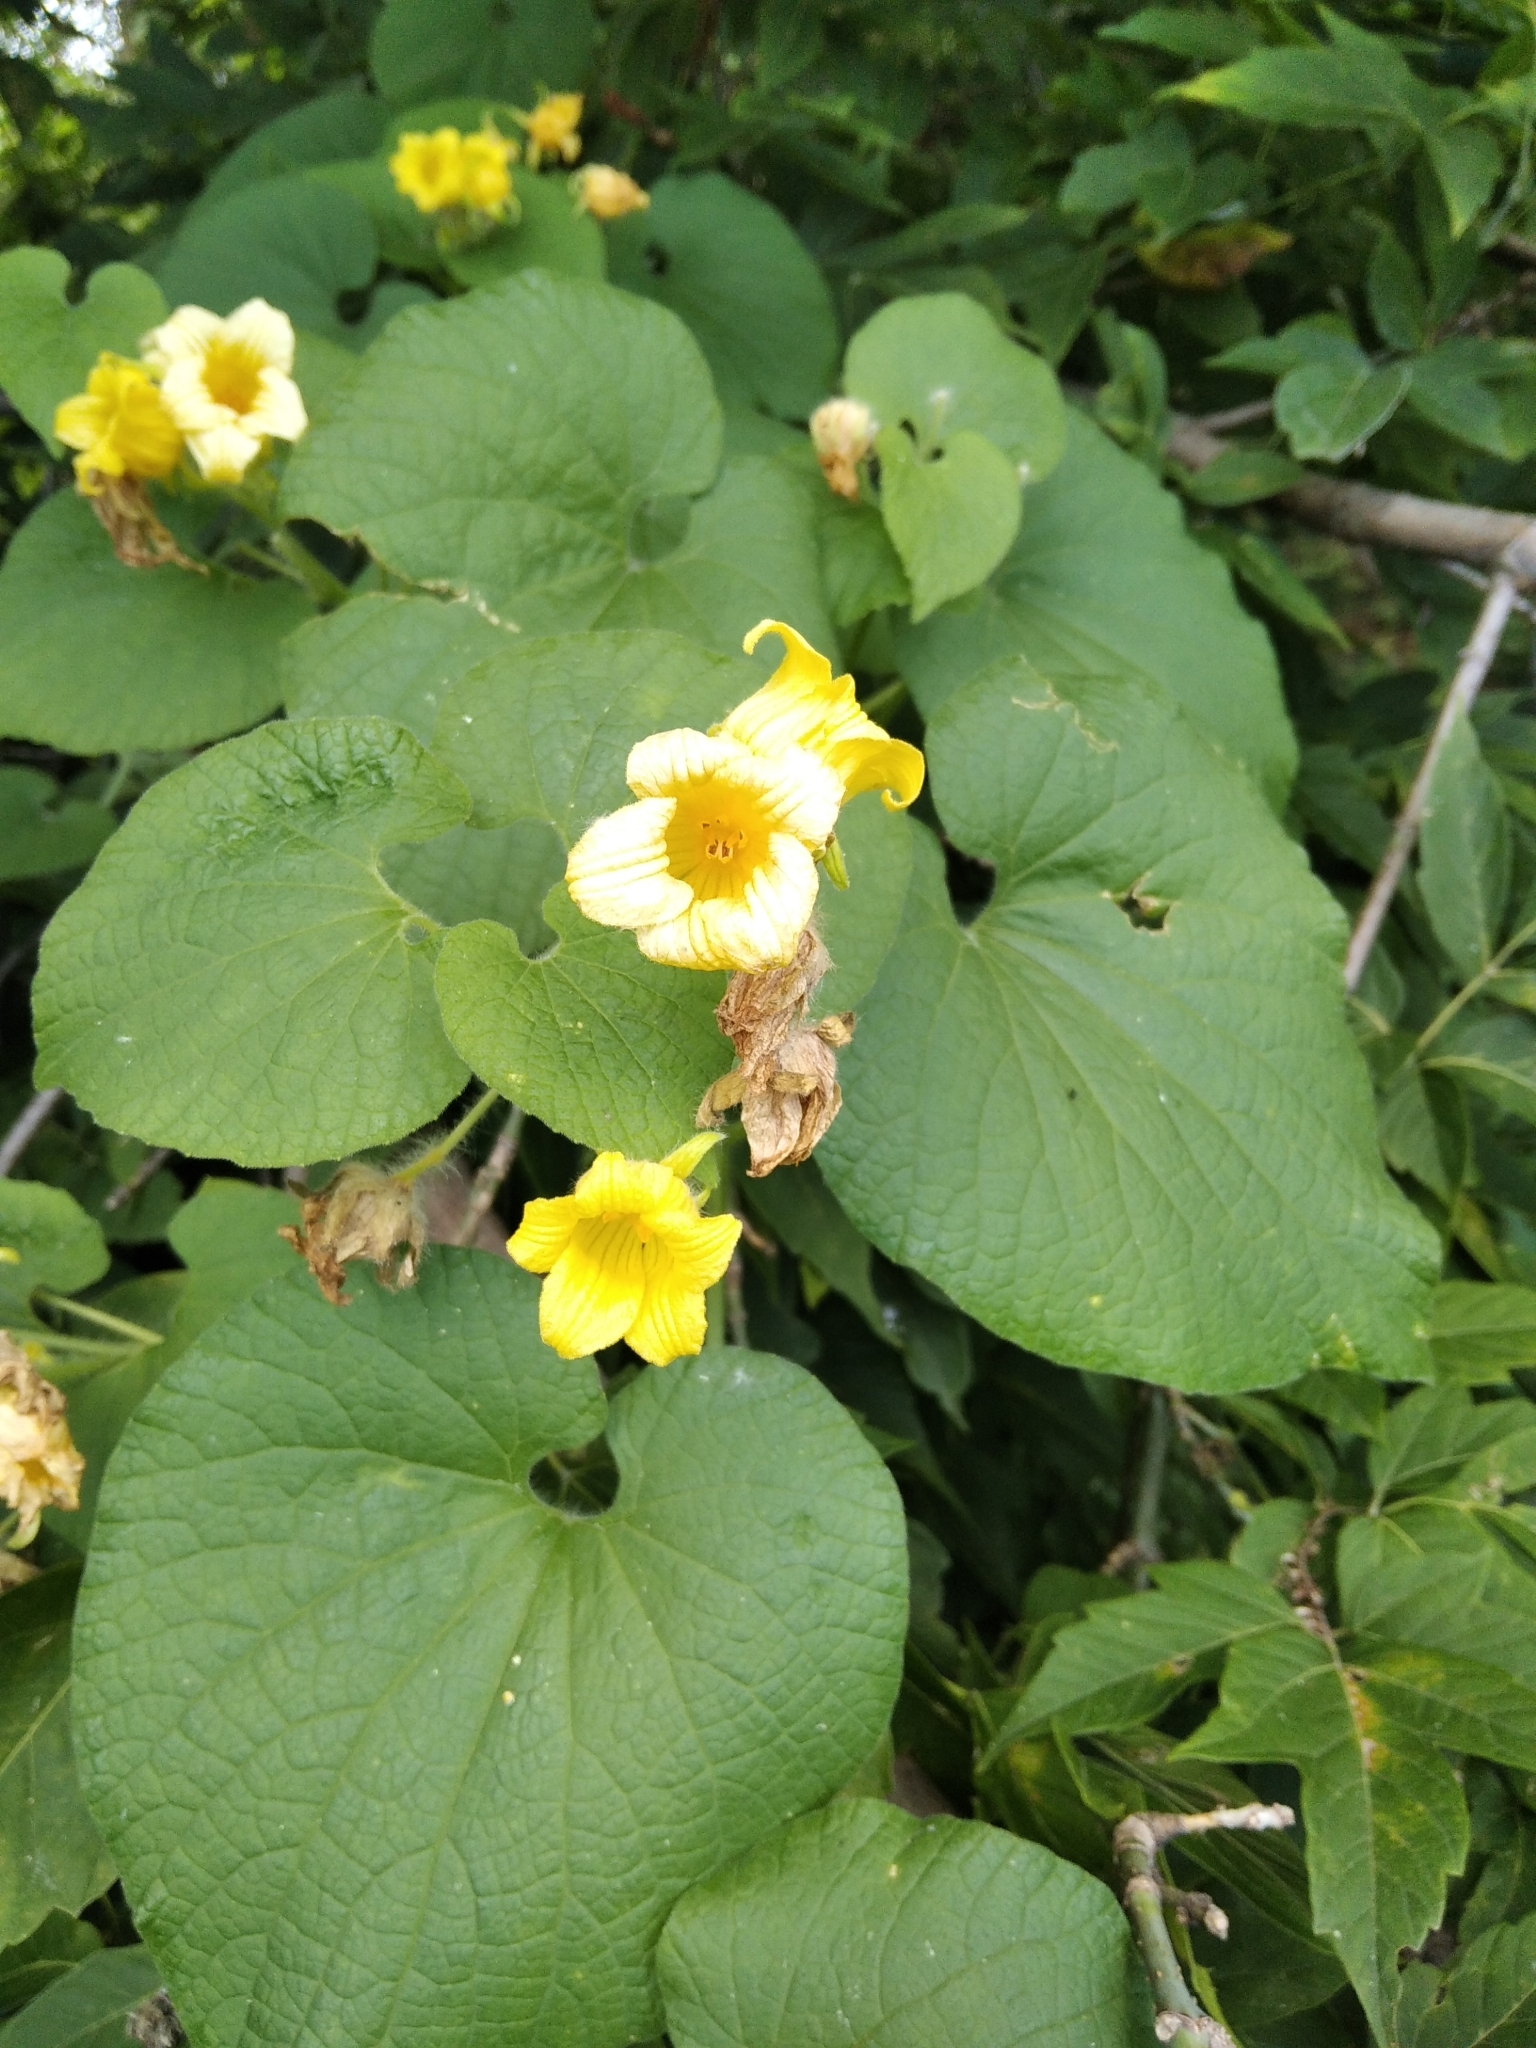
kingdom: Plantae
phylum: Tracheophyta
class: Magnoliopsida
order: Cucurbitales
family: Cucurbitaceae
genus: Thladiantha
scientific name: Thladiantha dubia
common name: Manchu tubergourd
